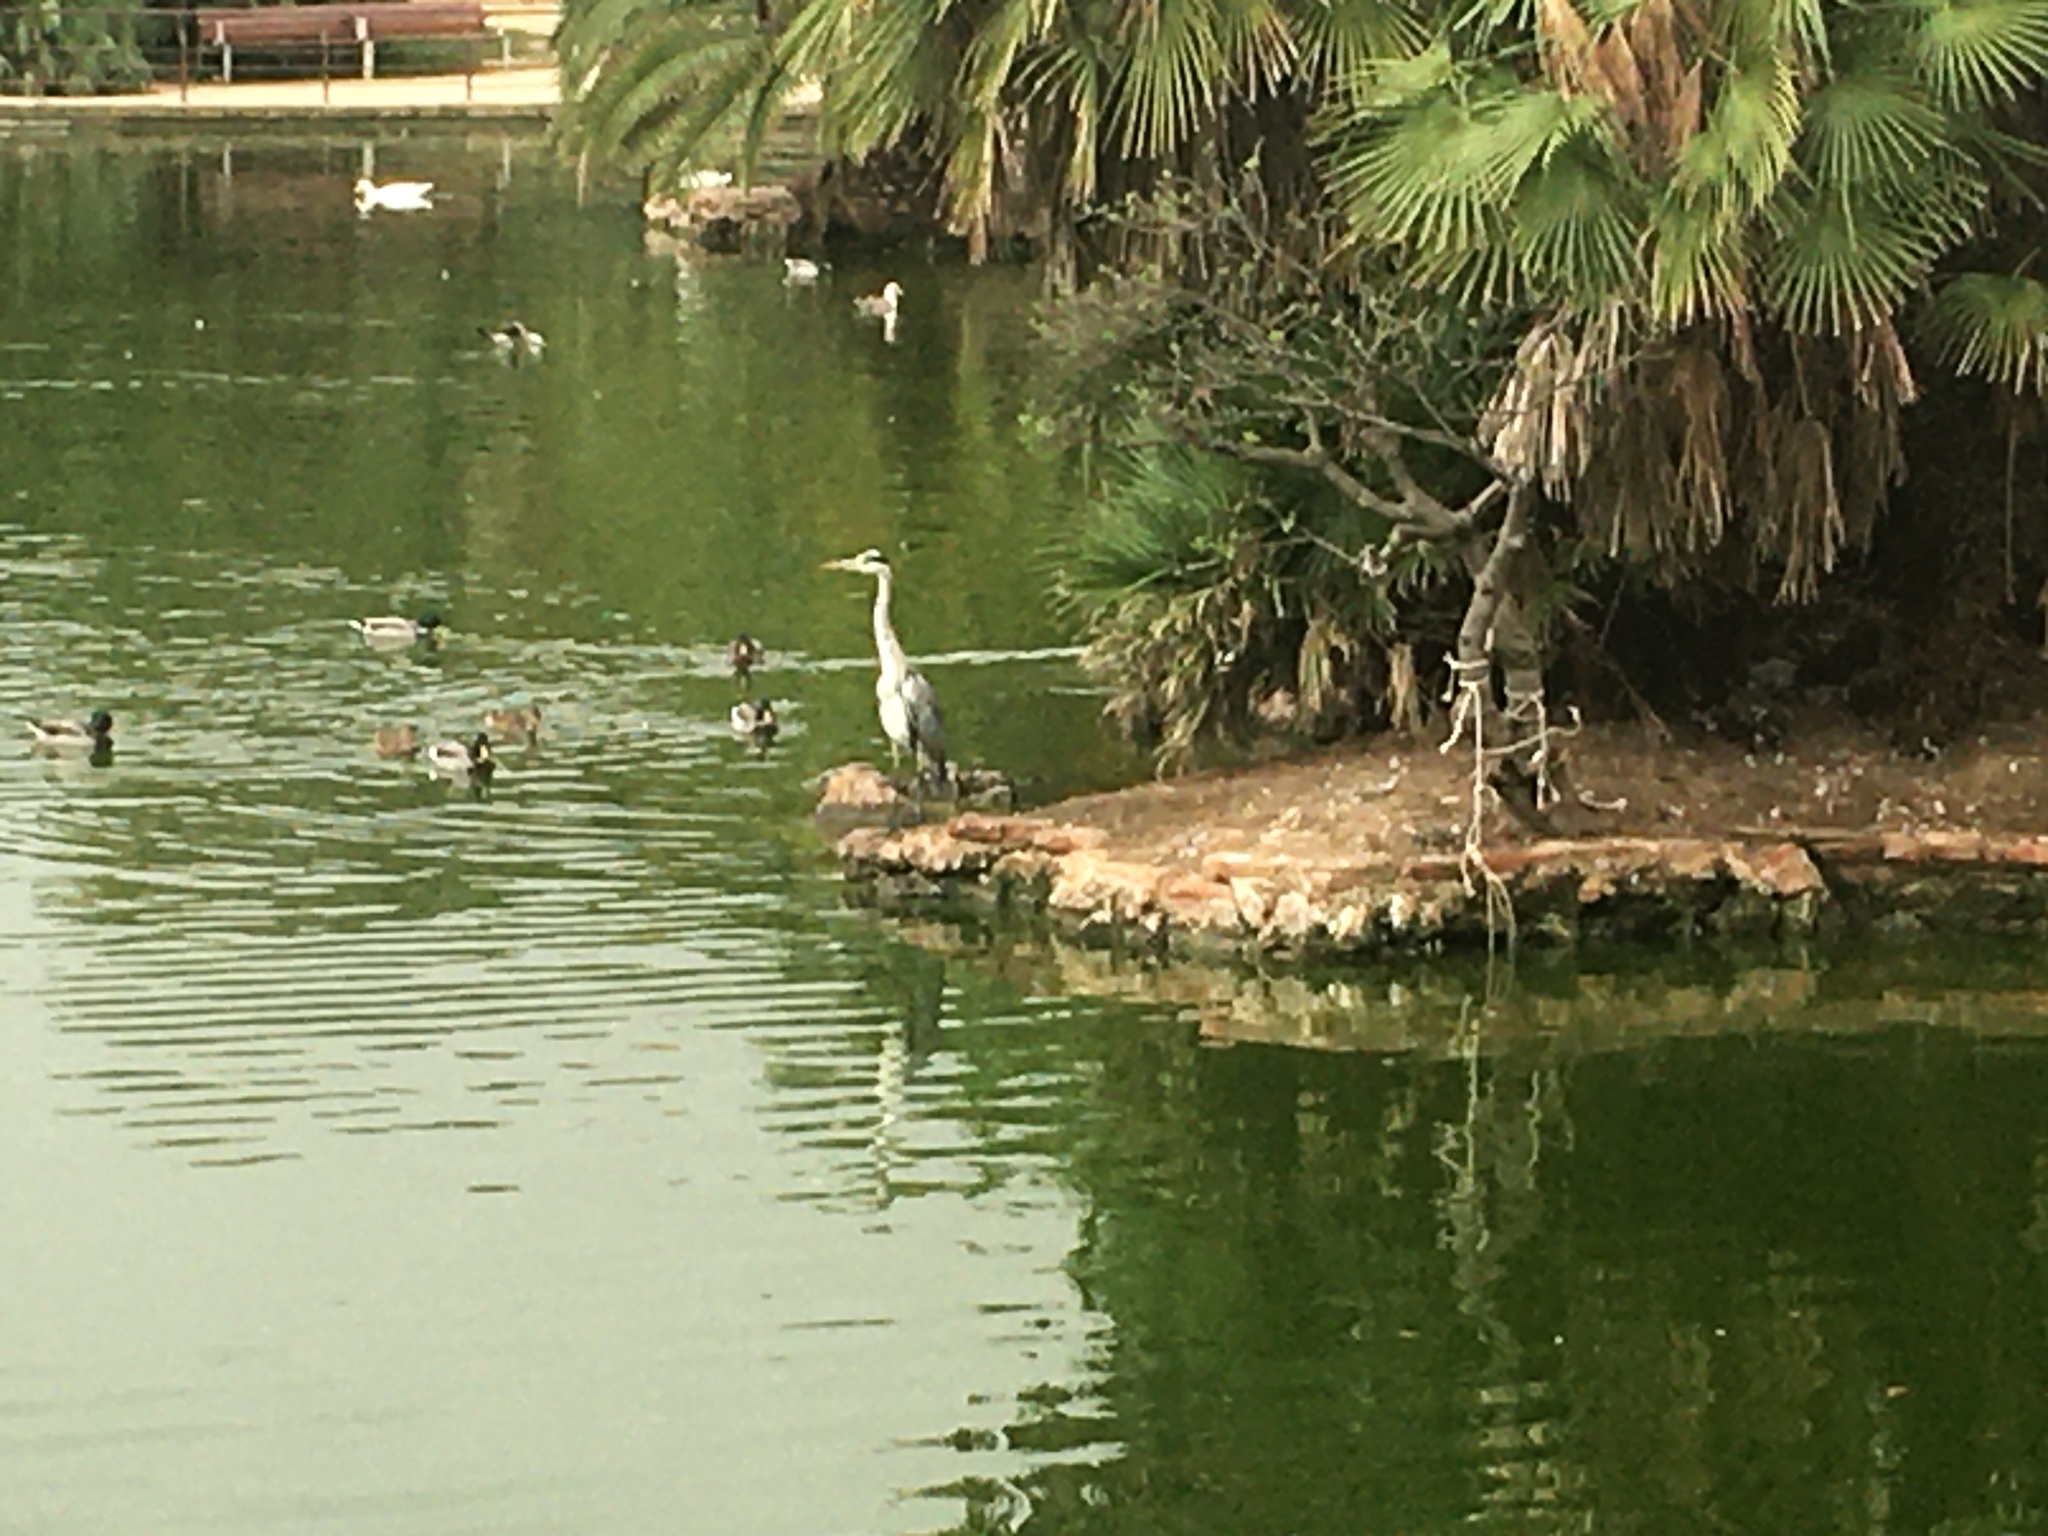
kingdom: Animalia
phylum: Chordata
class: Aves
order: Pelecaniformes
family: Ardeidae
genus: Ardea
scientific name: Ardea cinerea
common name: Grey heron
